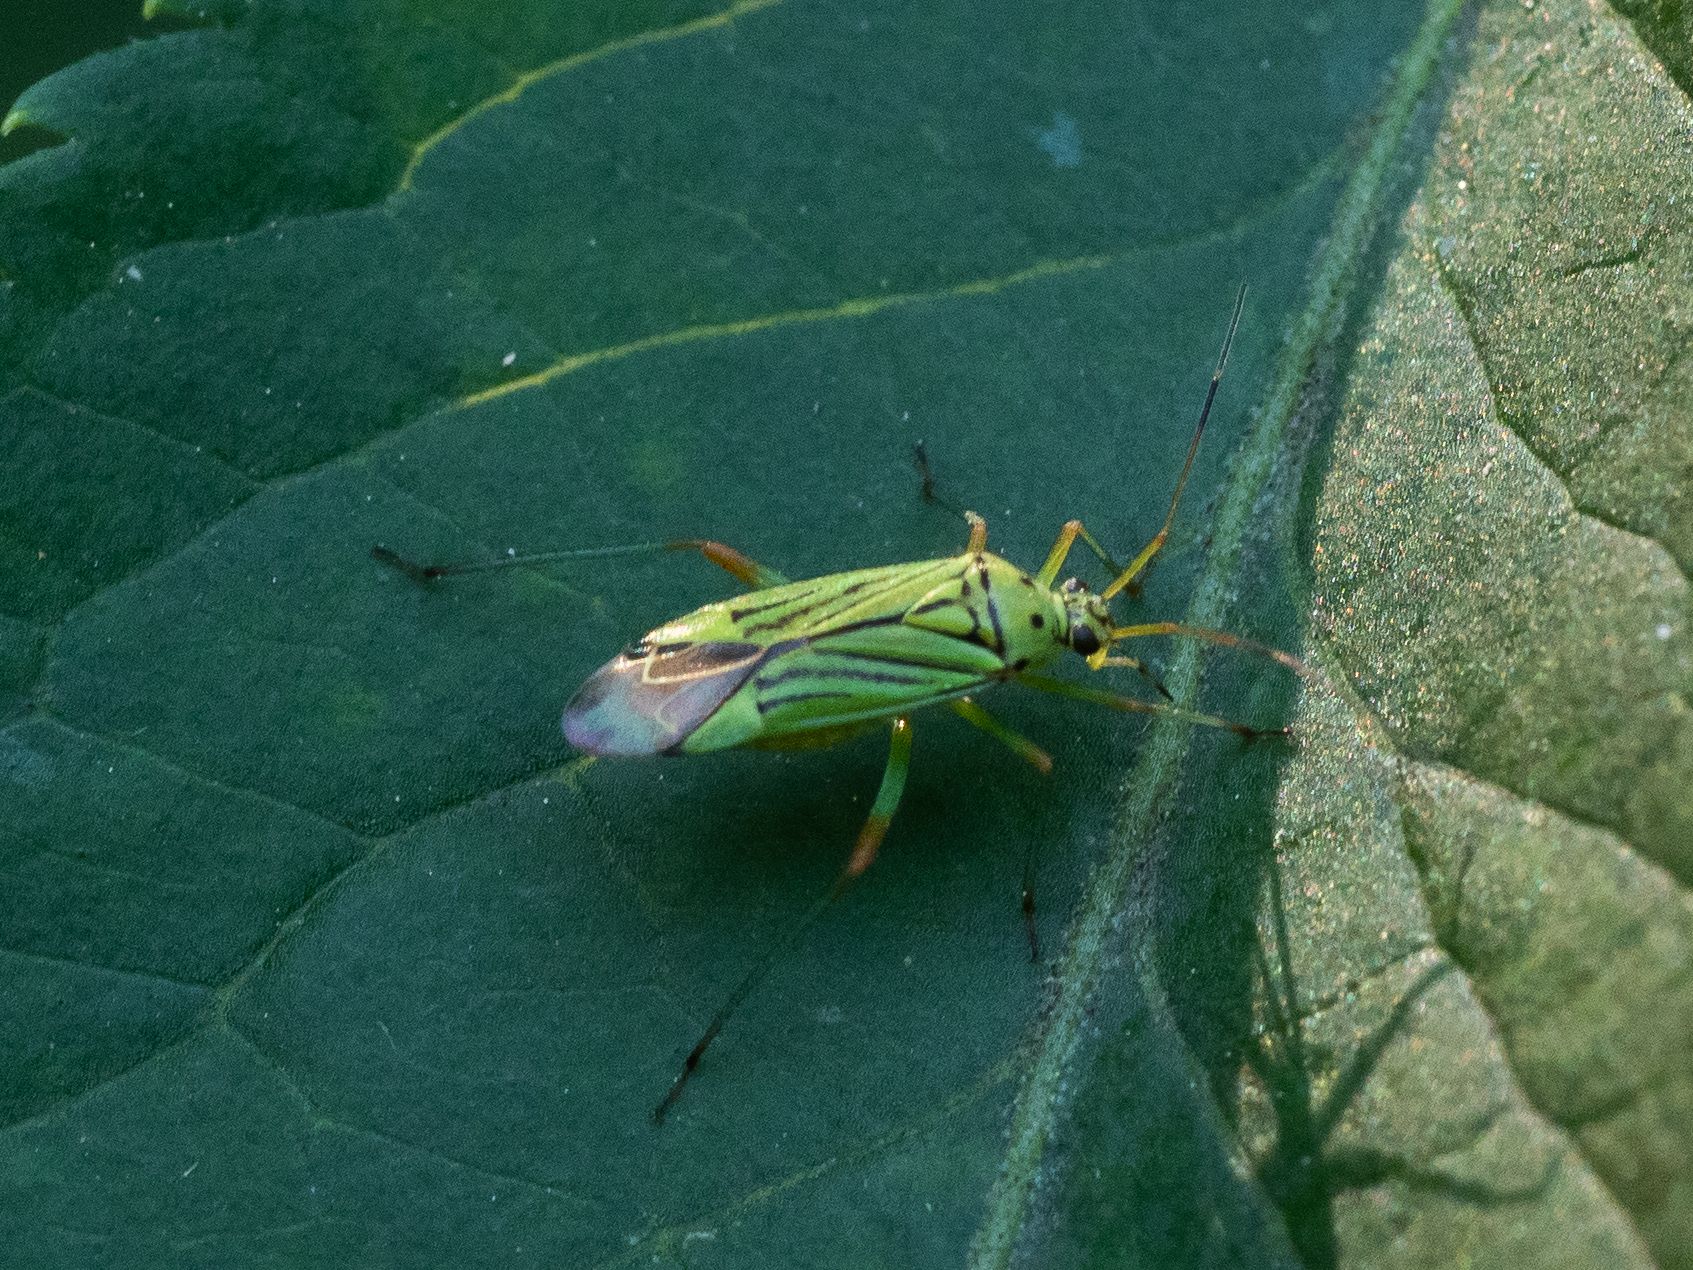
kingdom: Animalia
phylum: Arthropoda
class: Insecta
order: Hemiptera
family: Miridae
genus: Mermitelocerus
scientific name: Mermitelocerus schmidtii
